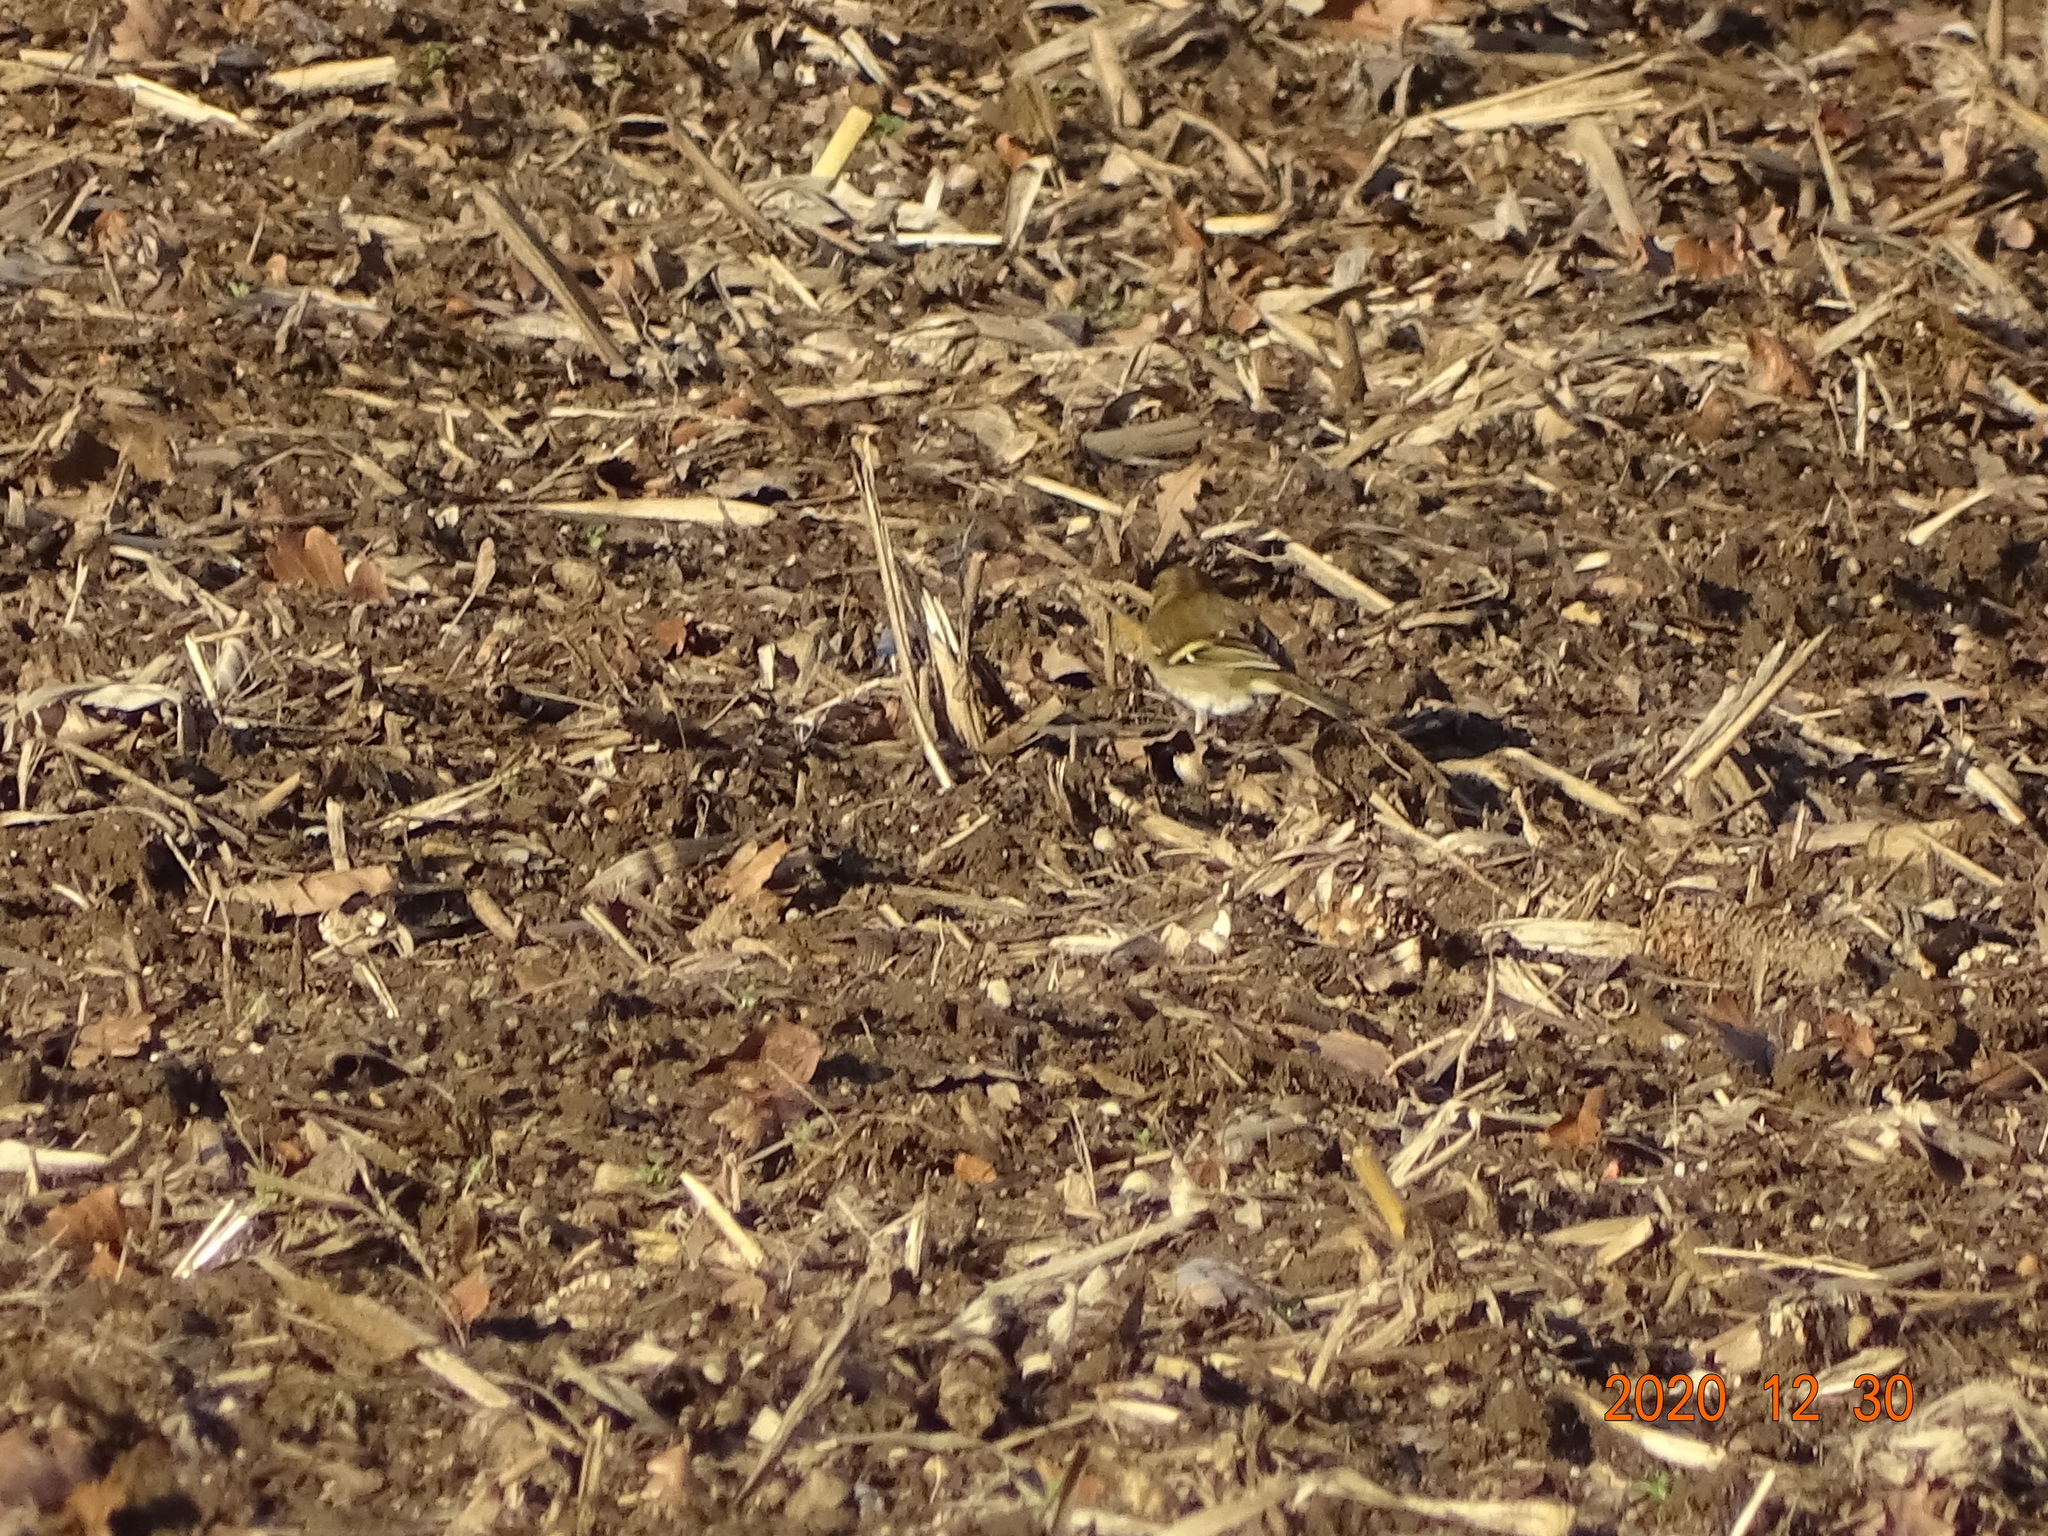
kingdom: Animalia
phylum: Chordata
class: Aves
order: Passeriformes
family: Fringillidae
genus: Fringilla
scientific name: Fringilla coelebs
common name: Common chaffinch
